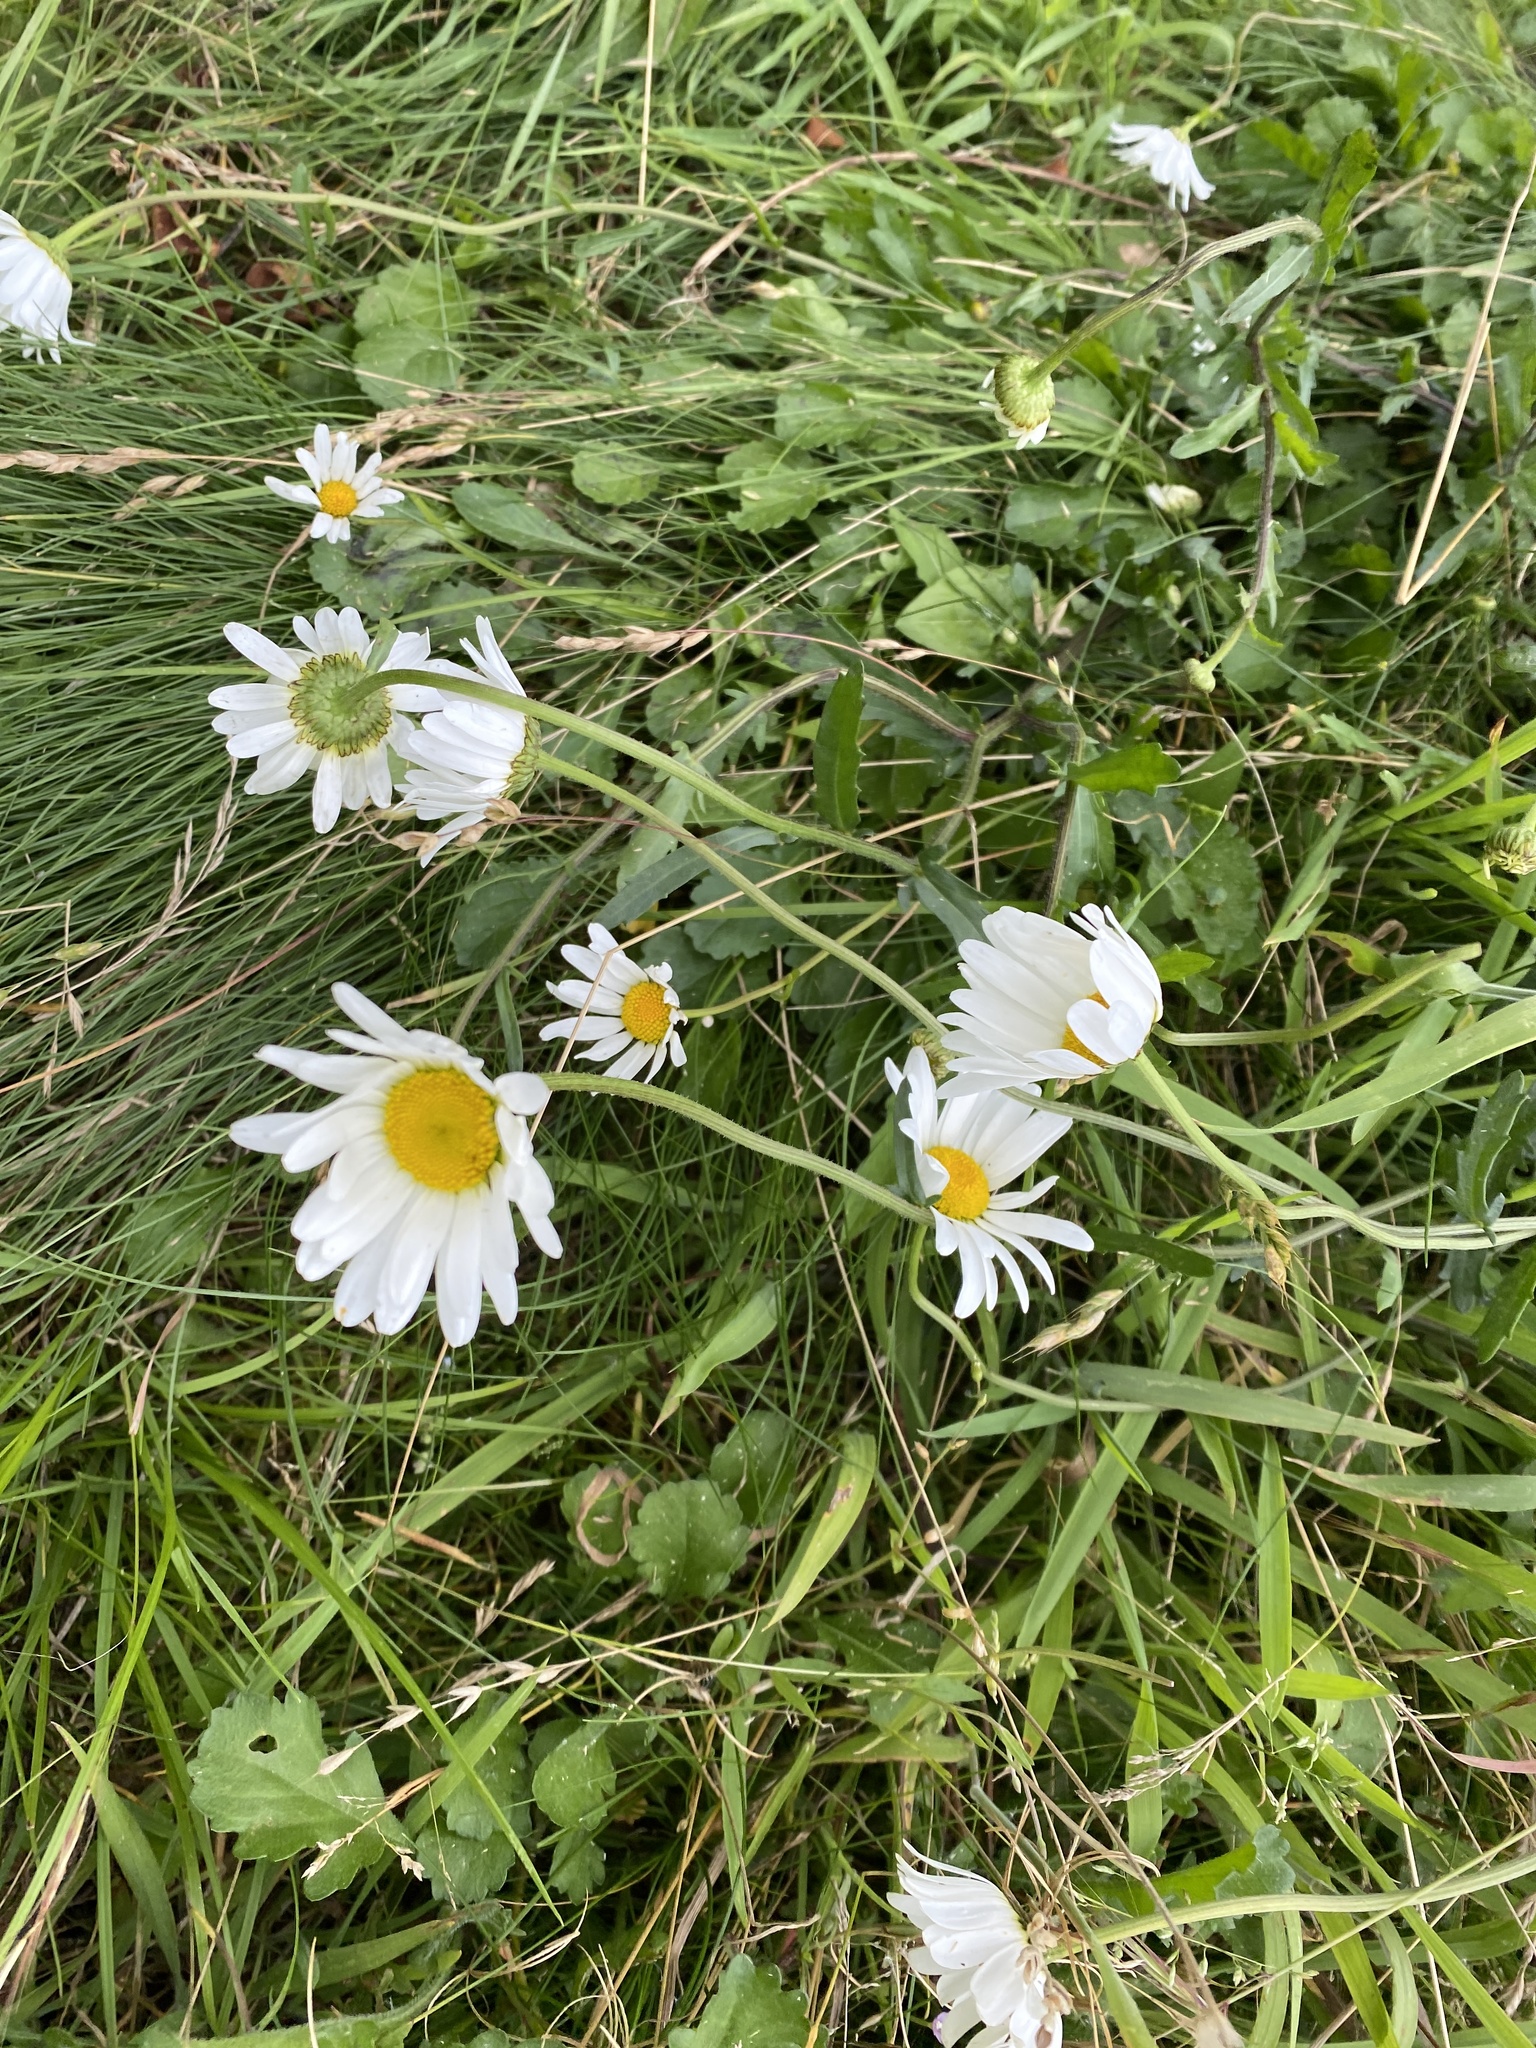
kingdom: Plantae
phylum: Tracheophyta
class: Magnoliopsida
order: Asterales
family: Asteraceae
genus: Leucanthemum
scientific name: Leucanthemum vulgare
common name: Oxeye daisy
